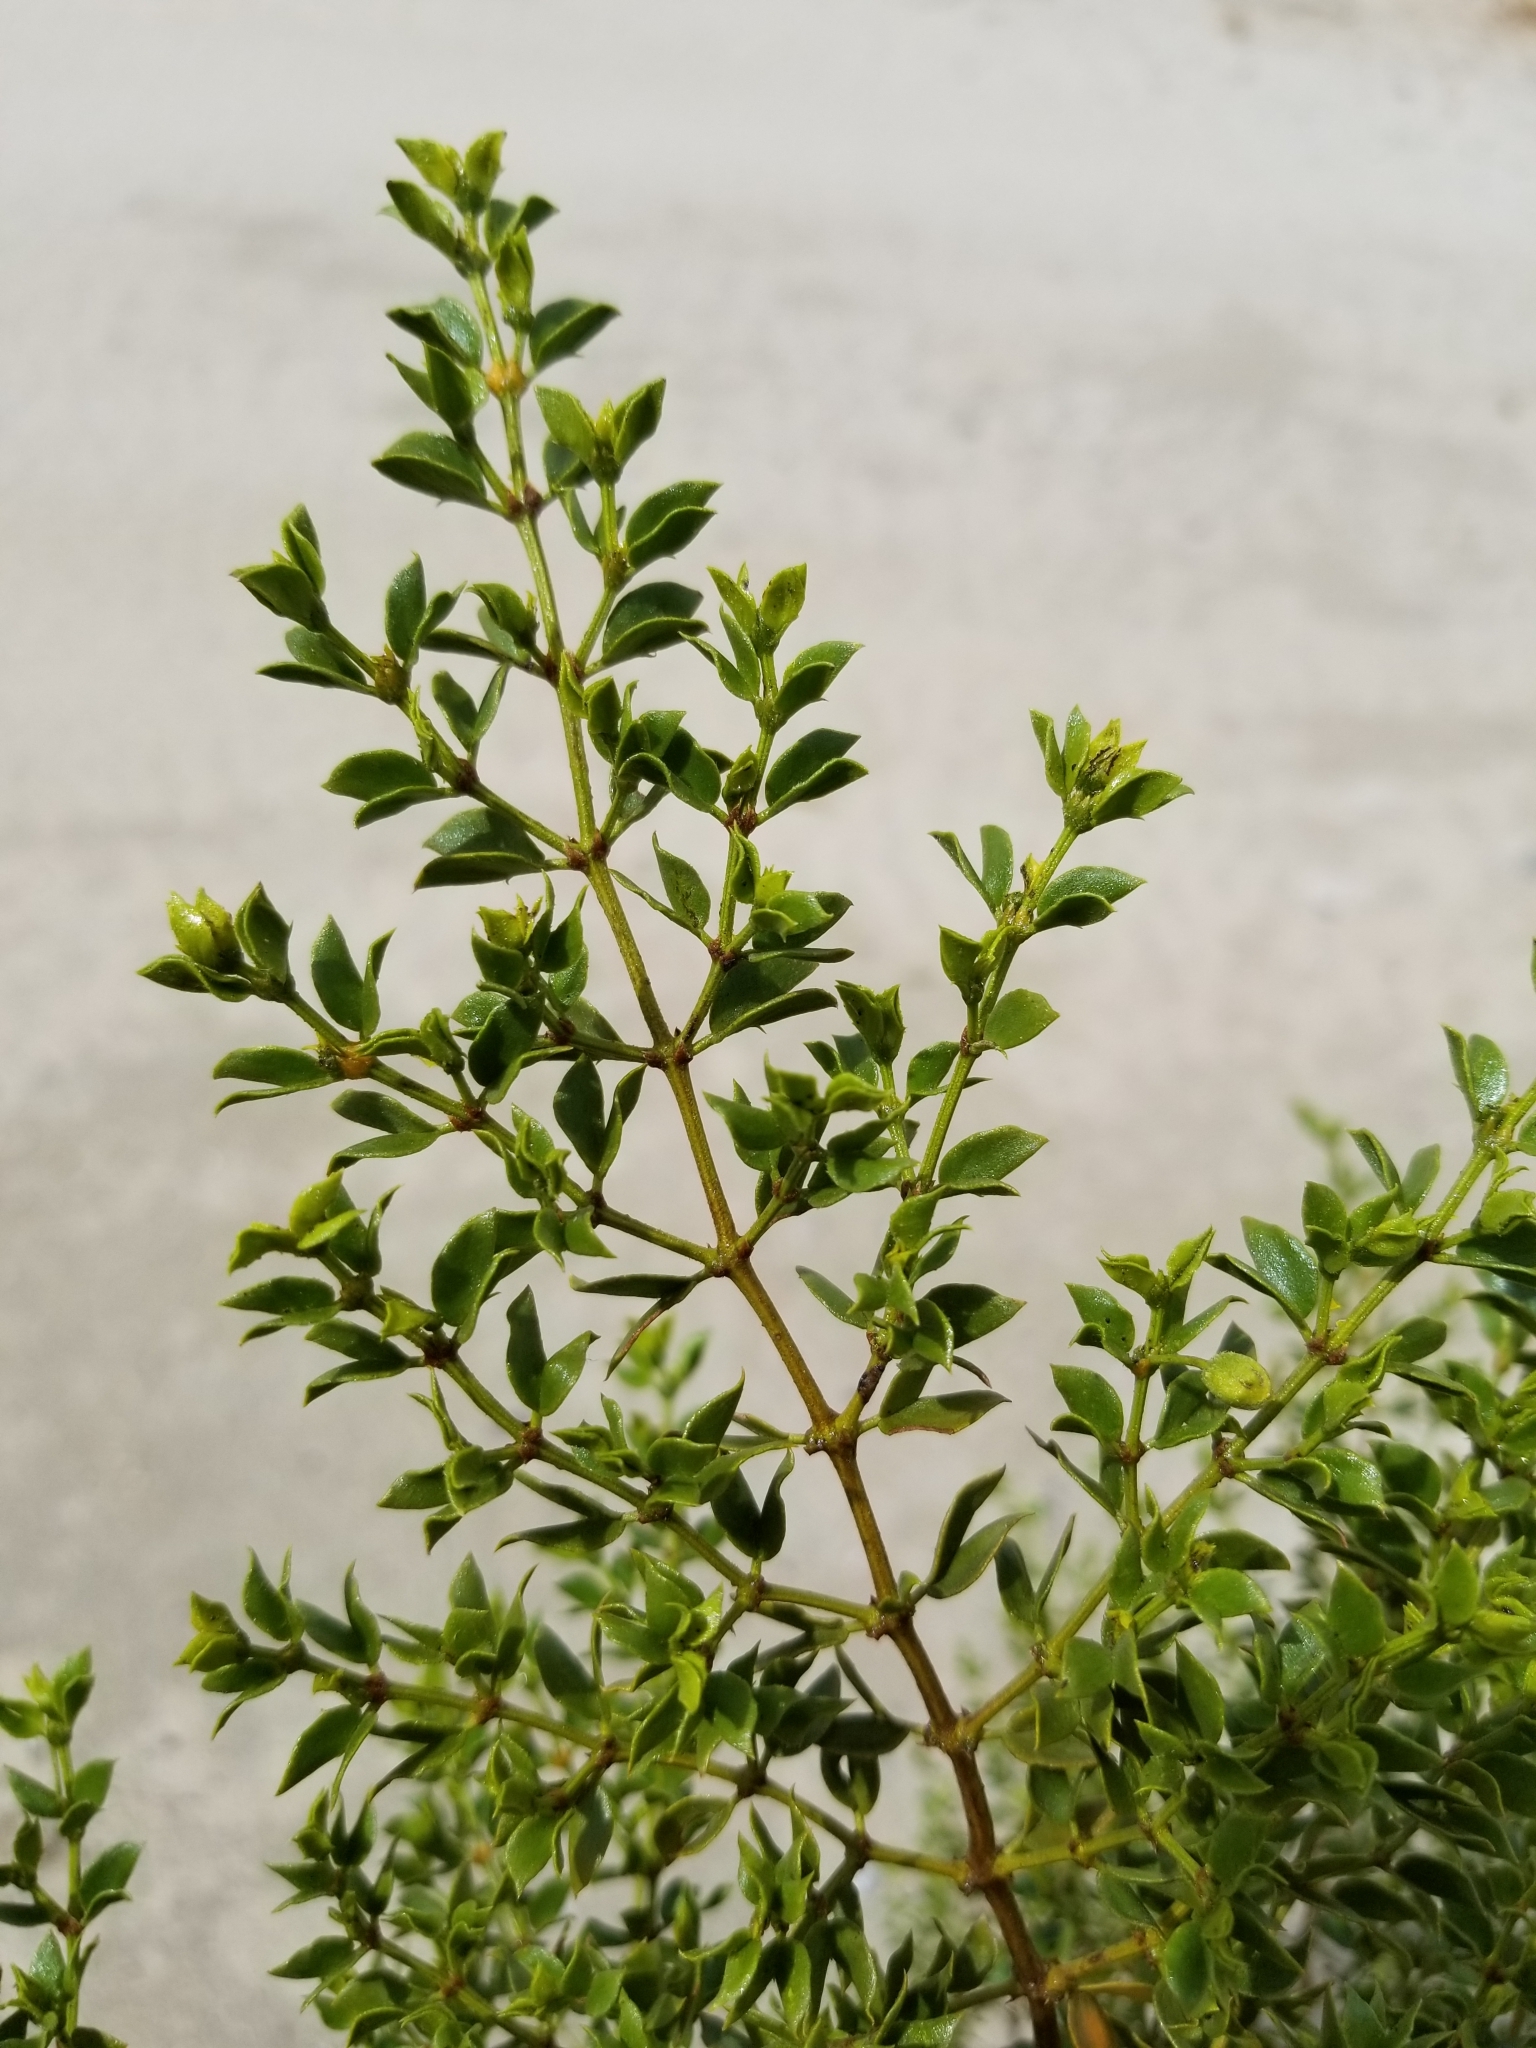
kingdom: Plantae
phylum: Tracheophyta
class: Magnoliopsida
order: Zygophyllales
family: Zygophyllaceae
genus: Larrea
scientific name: Larrea tridentata
